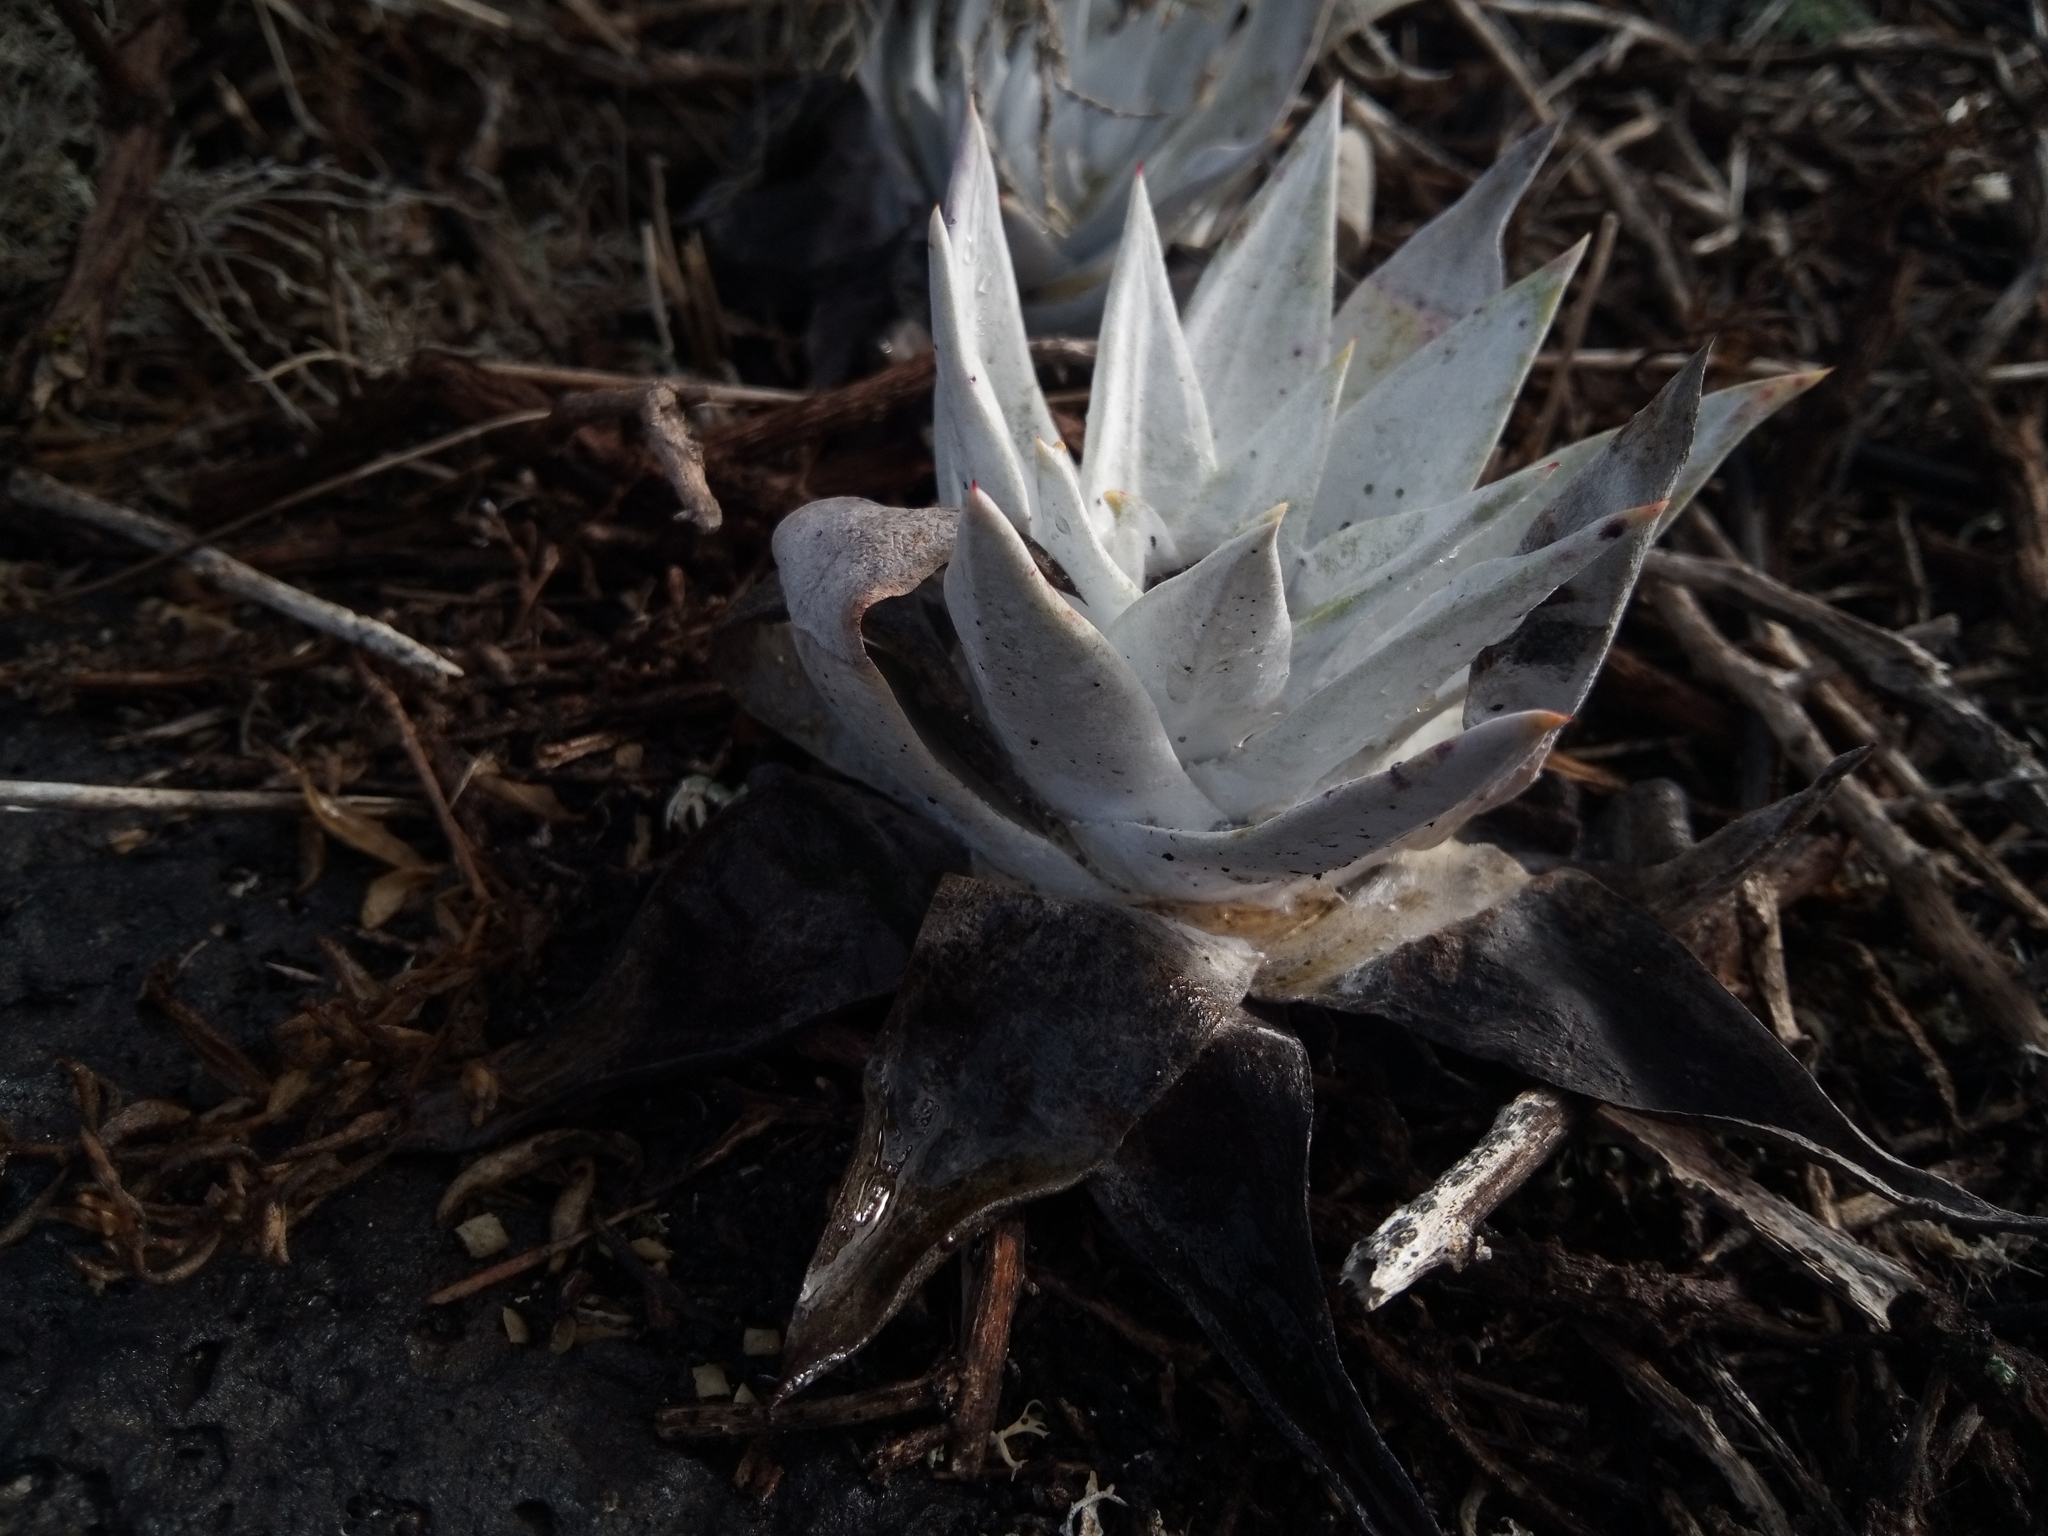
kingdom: Plantae
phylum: Tracheophyta
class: Magnoliopsida
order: Saxifragales
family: Crassulaceae
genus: Dudleya
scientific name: Dudleya anthonyi
